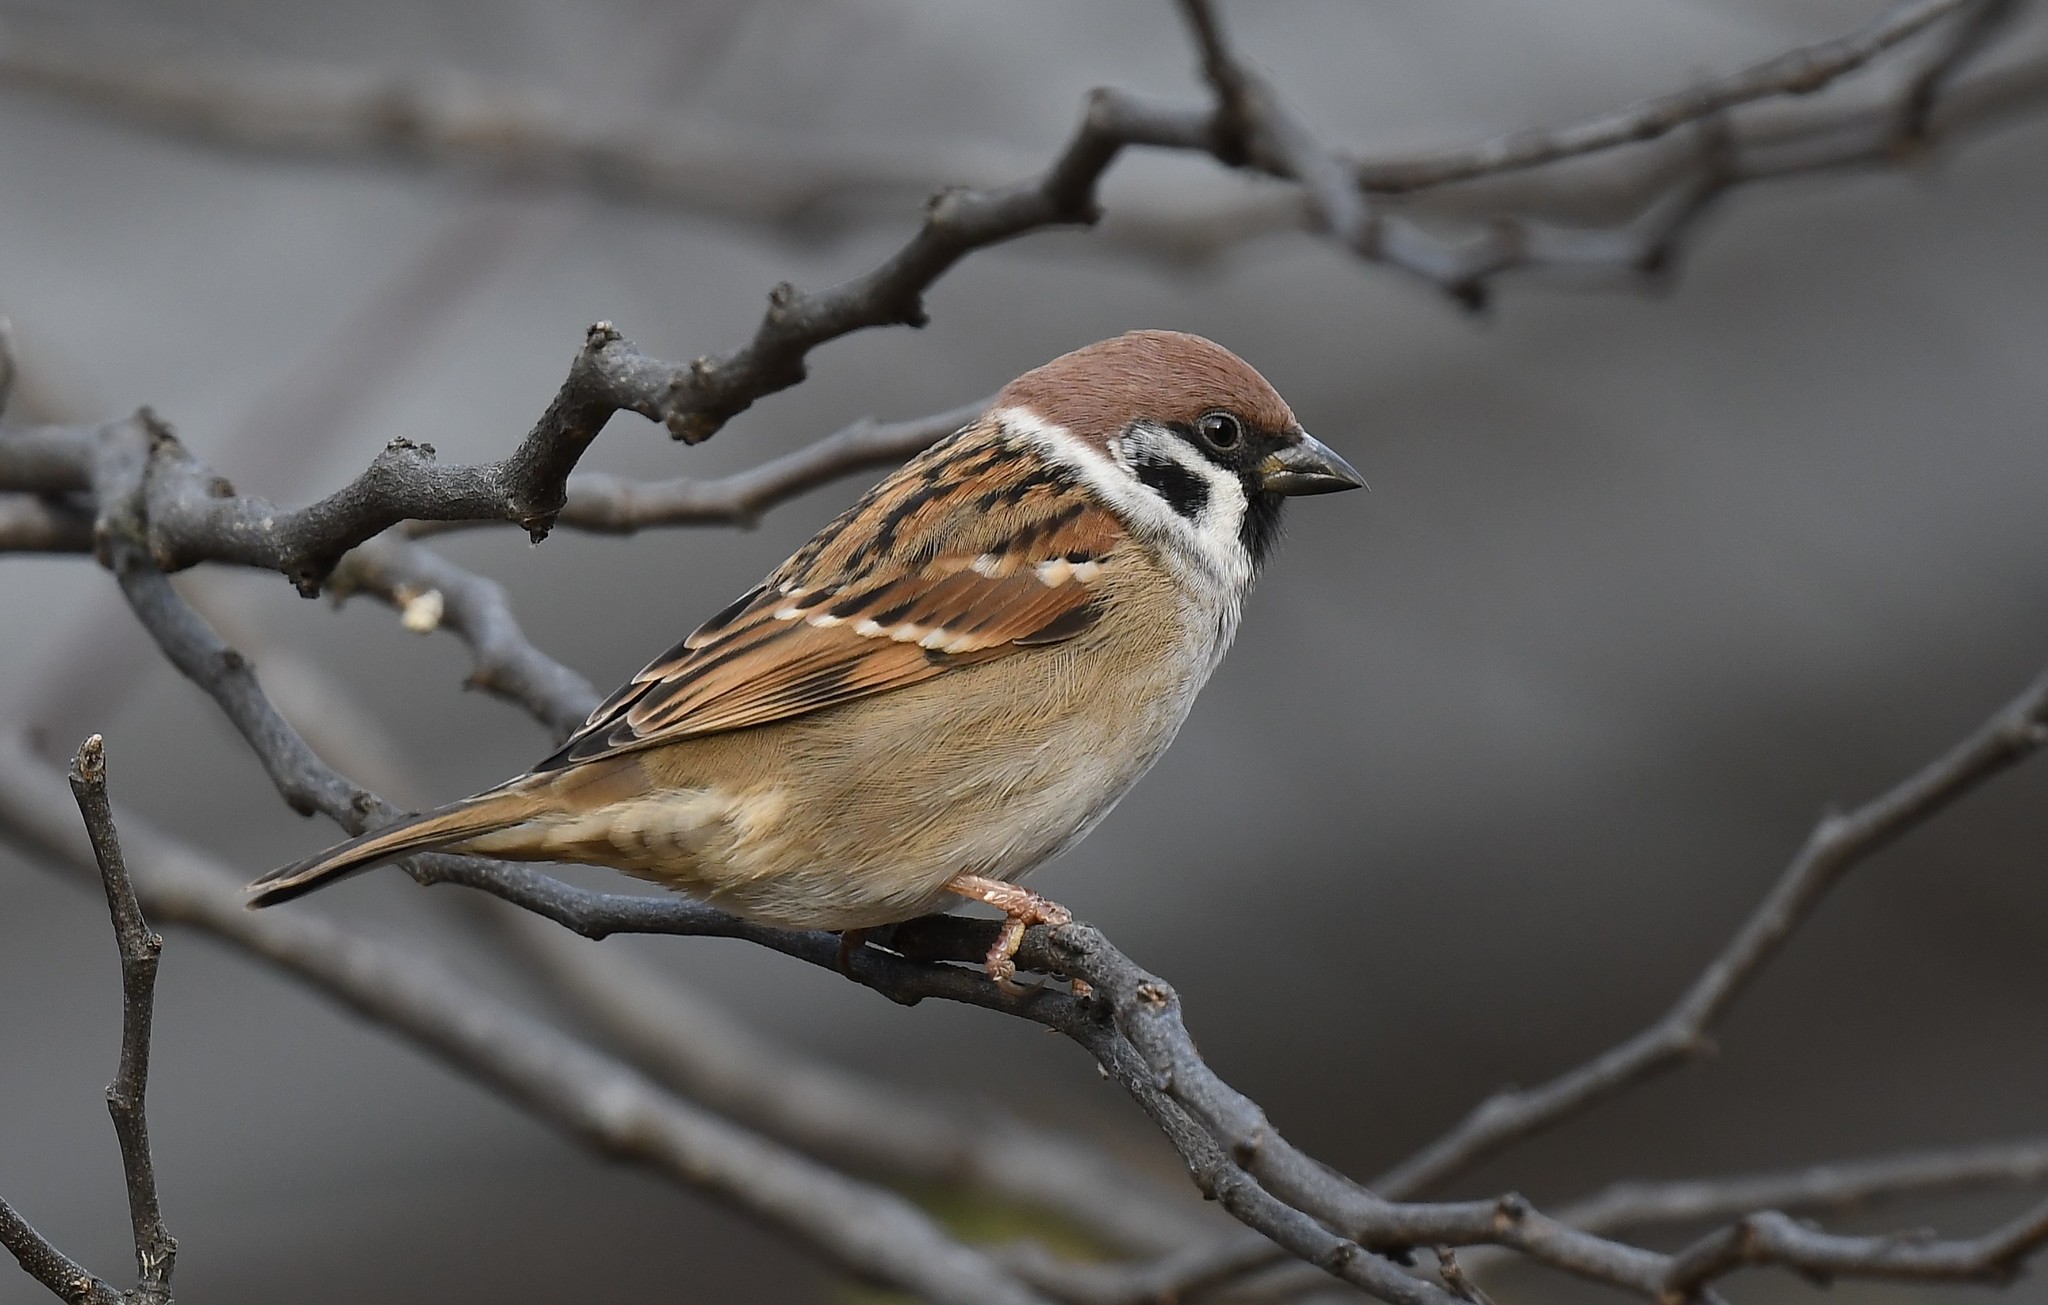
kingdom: Animalia
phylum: Chordata
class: Aves
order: Passeriformes
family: Passeridae
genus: Passer
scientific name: Passer montanus
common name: Eurasian tree sparrow
